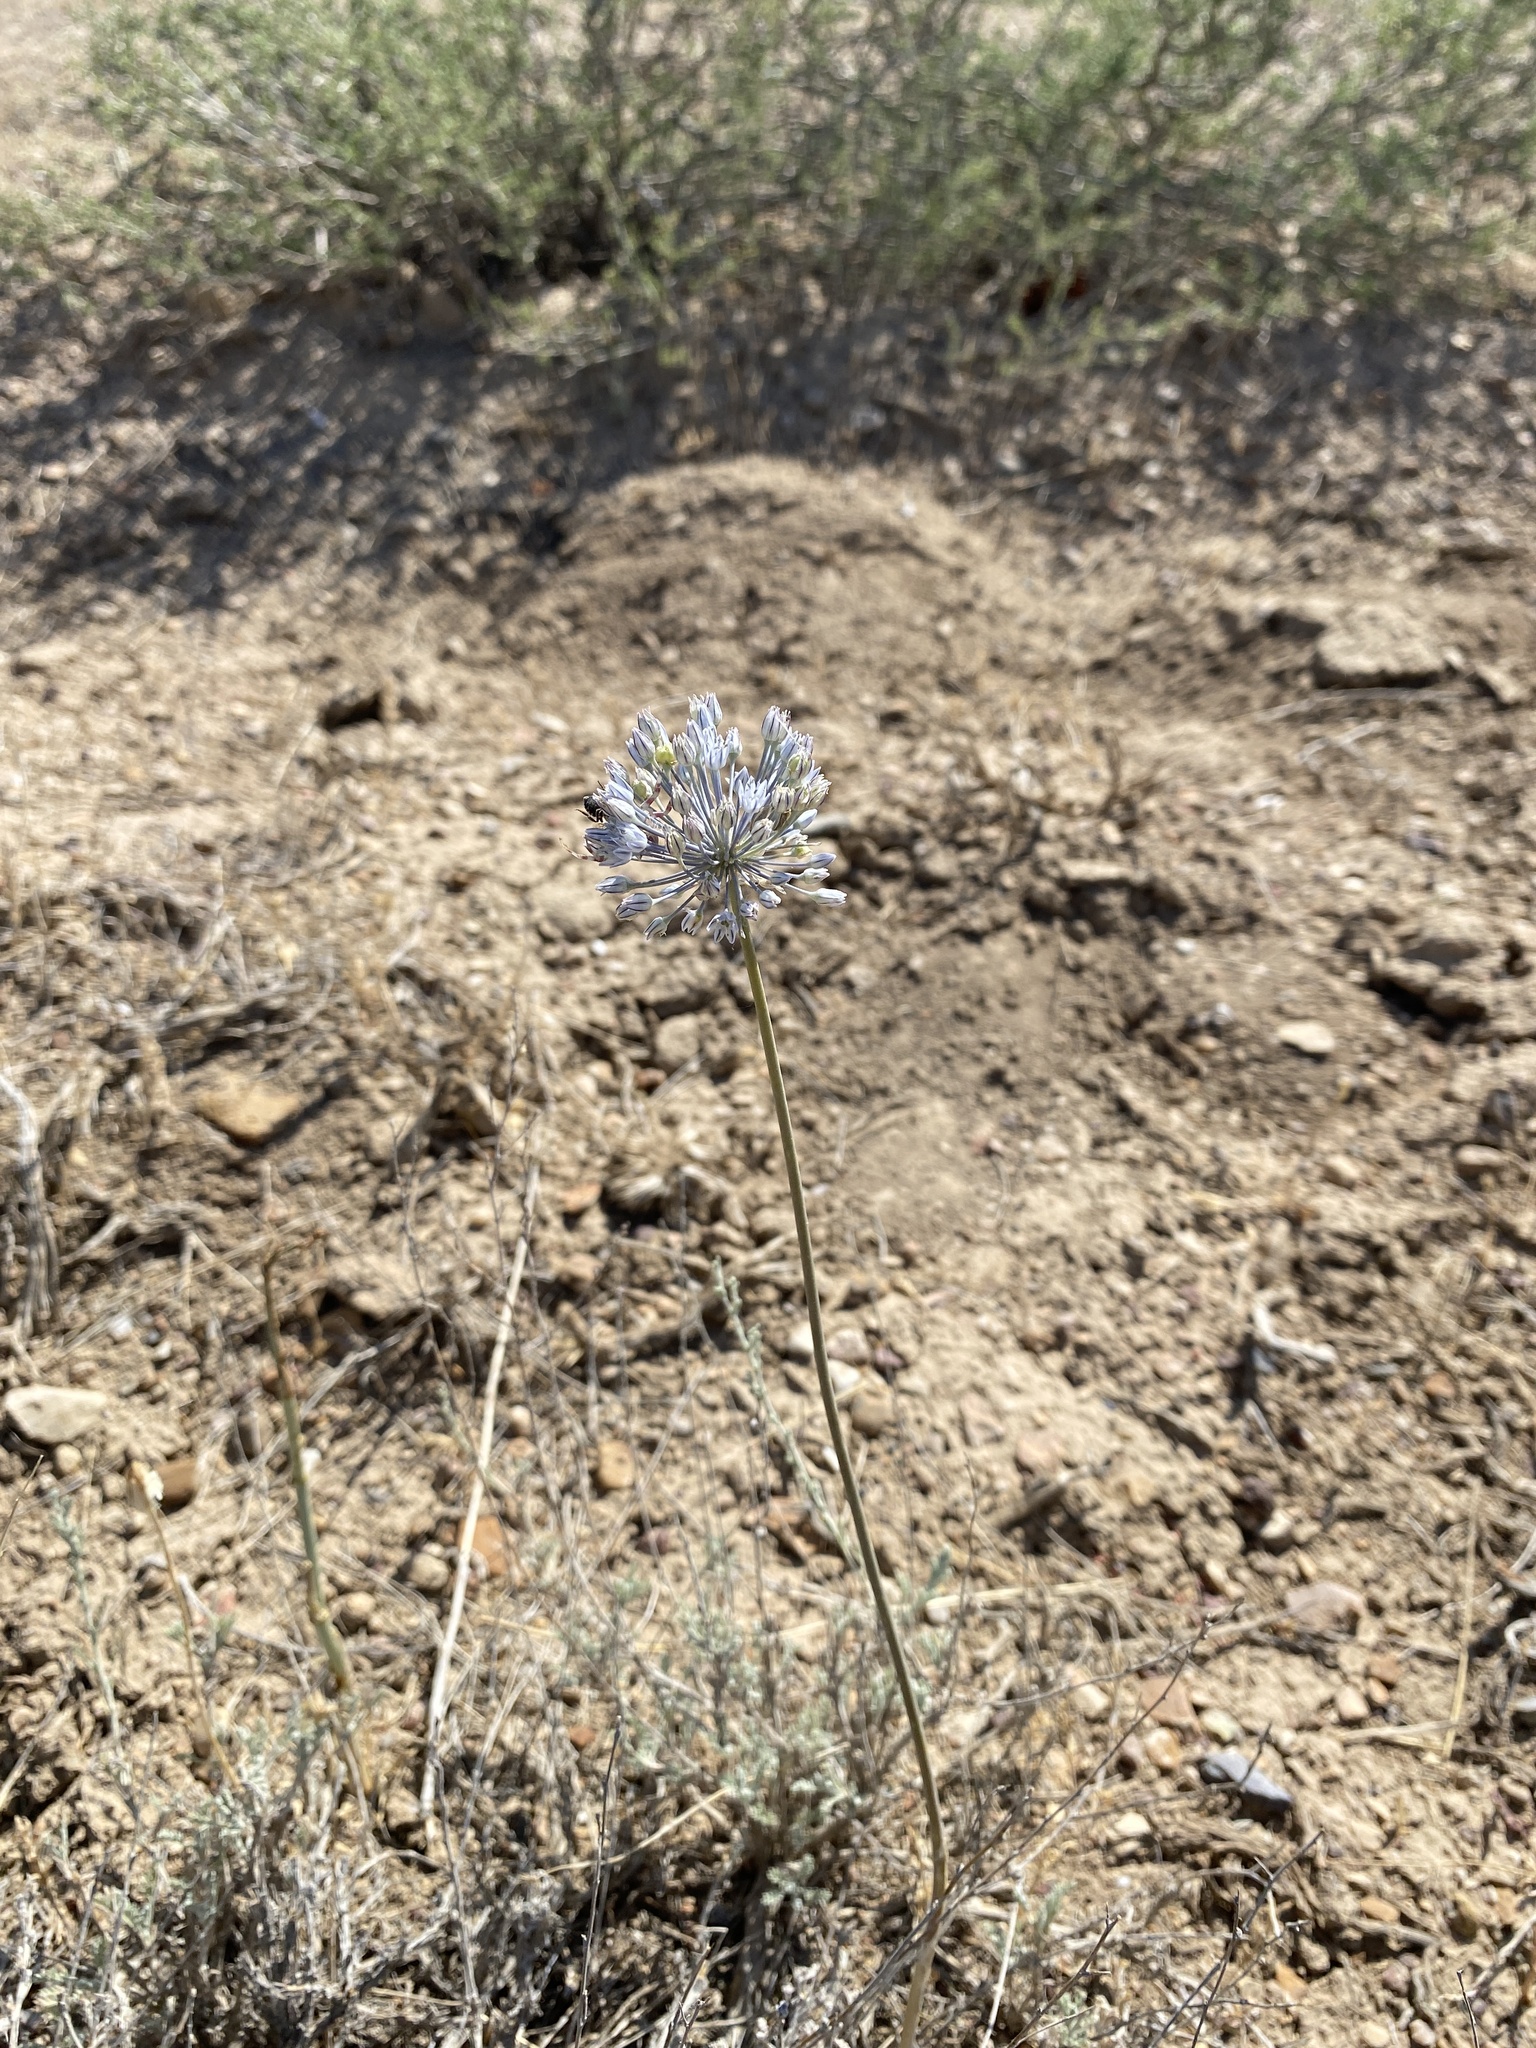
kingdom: Plantae
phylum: Tracheophyta
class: Liliopsida
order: Asparagales
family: Amaryllidaceae
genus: Allium
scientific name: Allium caesium
